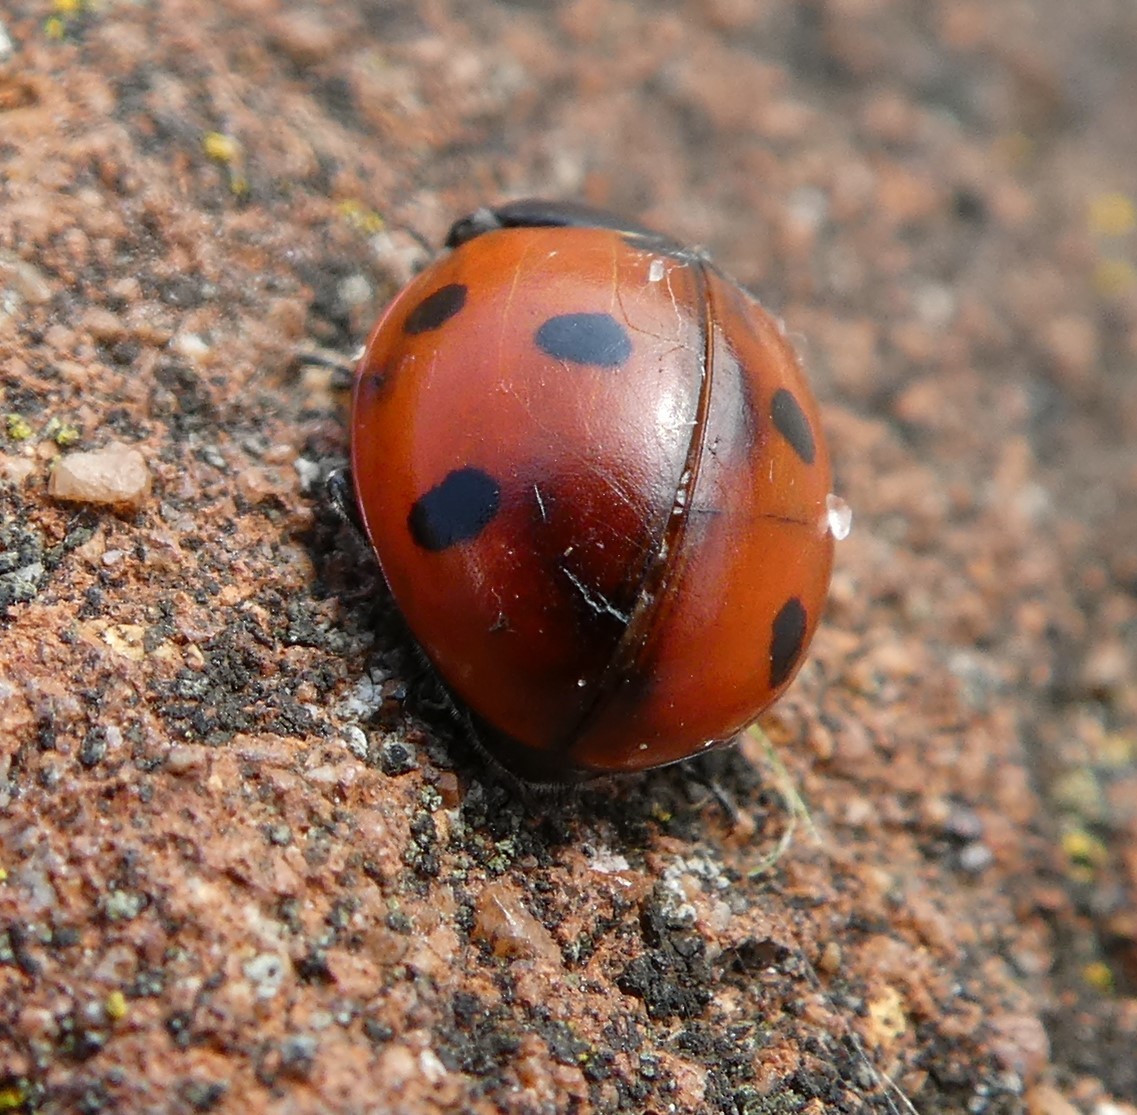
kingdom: Animalia
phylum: Arthropoda
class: Insecta
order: Coleoptera
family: Coccinellidae
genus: Coccinella
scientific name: Coccinella septempunctata
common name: Sevenspotted lady beetle
